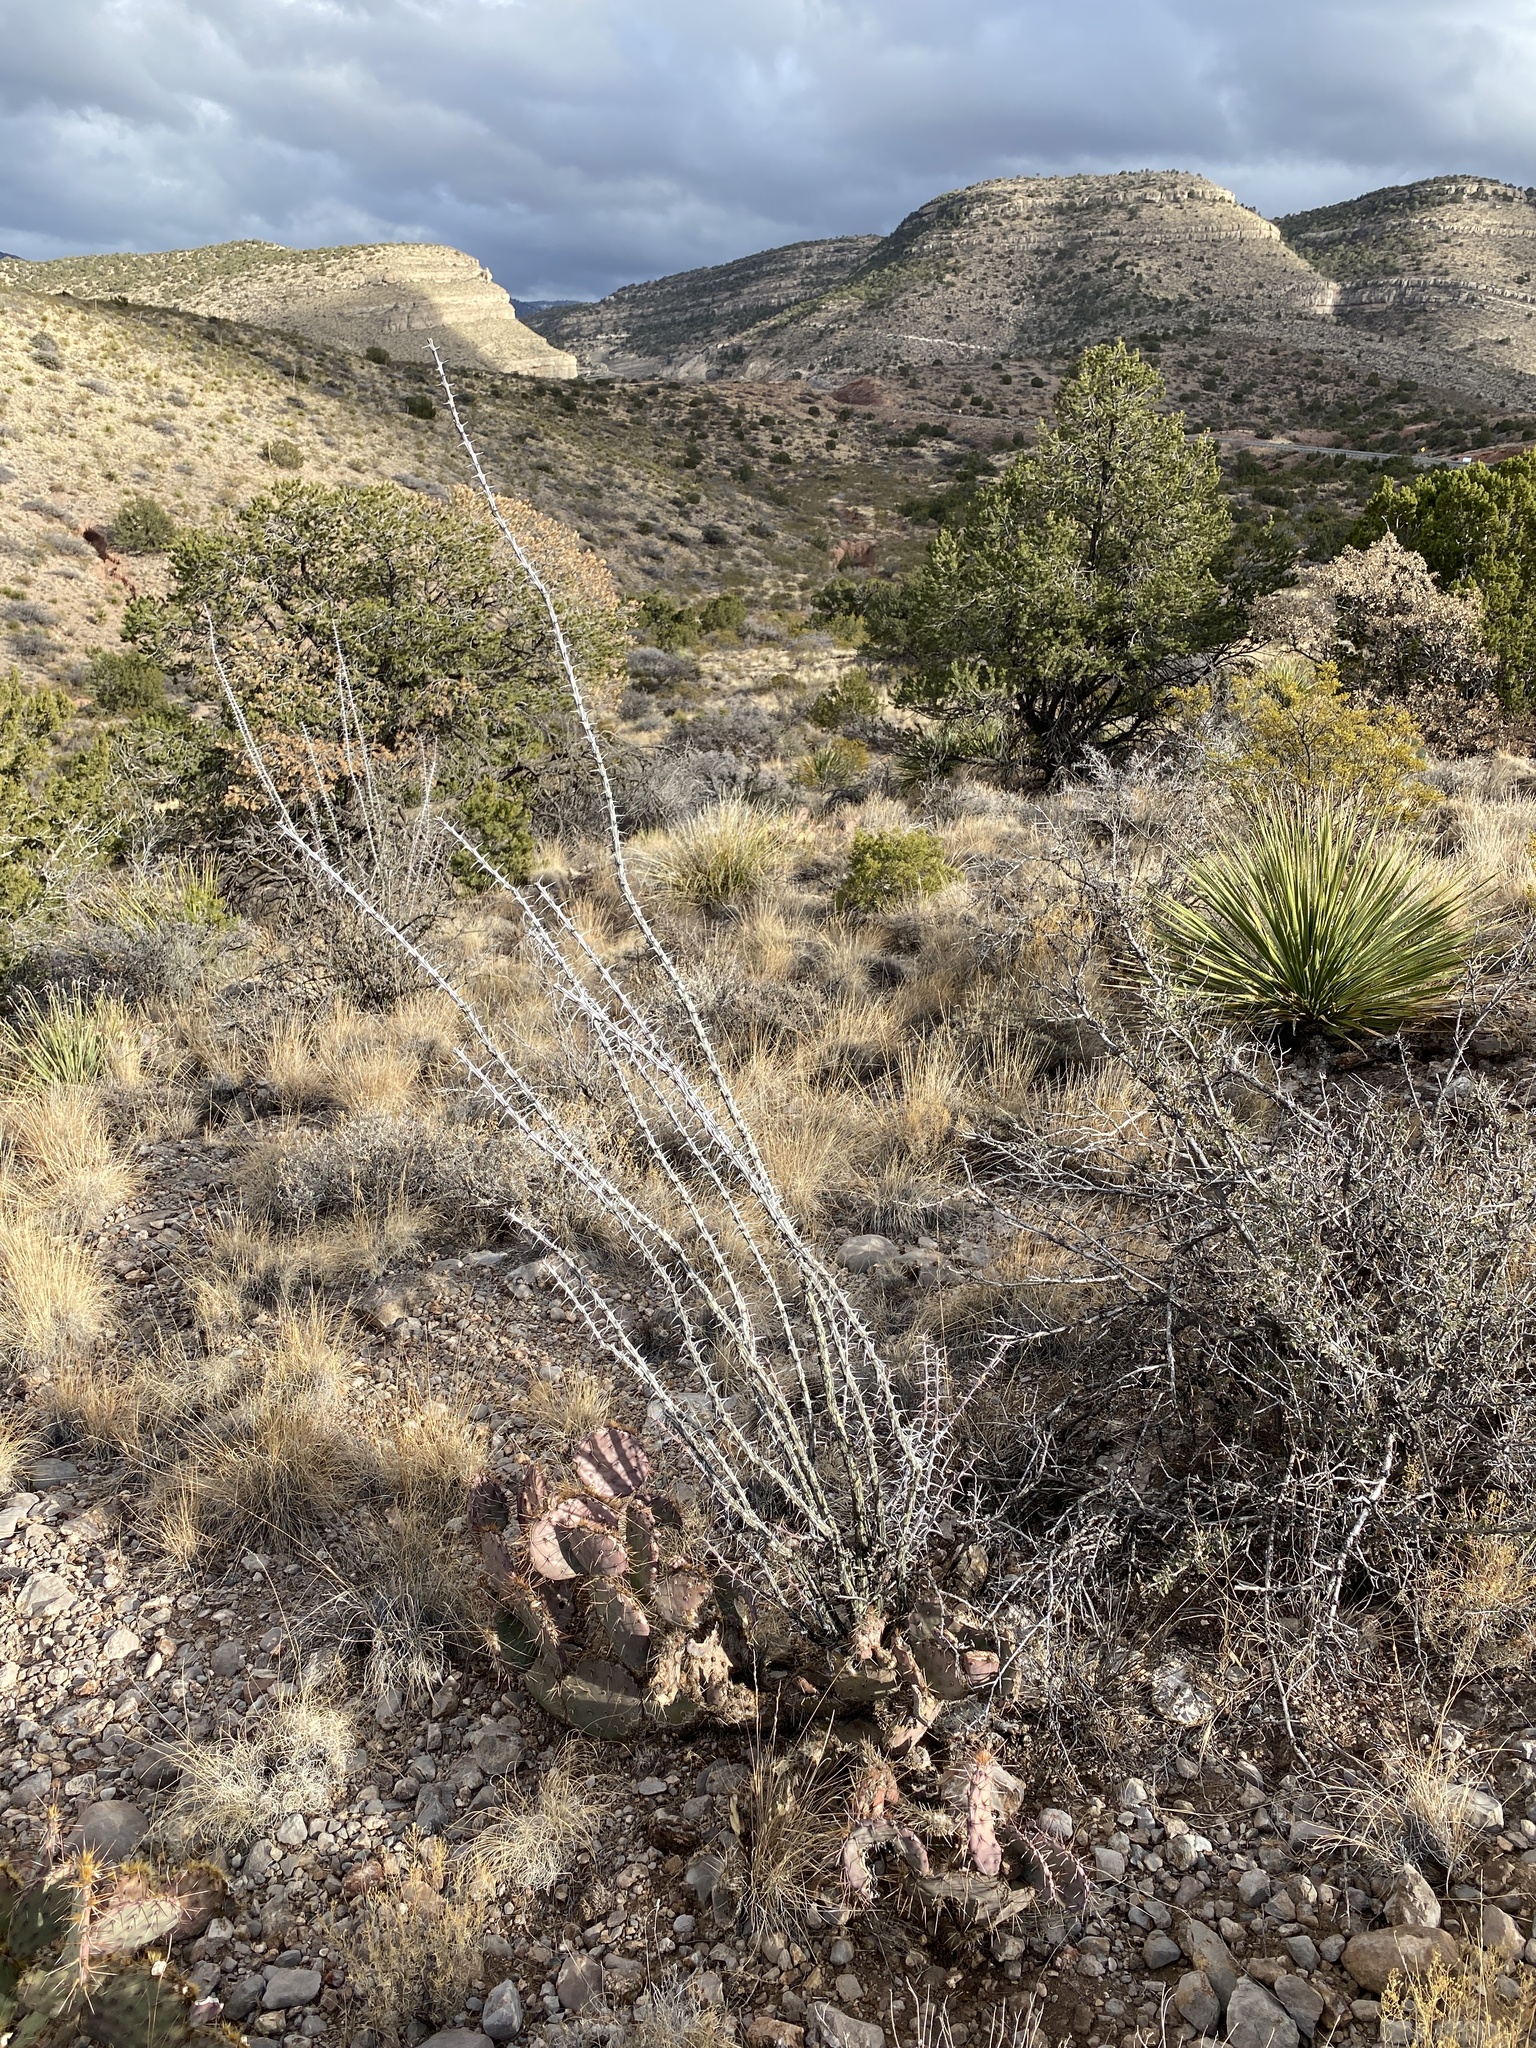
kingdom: Plantae
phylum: Tracheophyta
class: Magnoliopsida
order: Ericales
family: Fouquieriaceae
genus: Fouquieria
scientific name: Fouquieria splendens
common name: Vine-cactus
